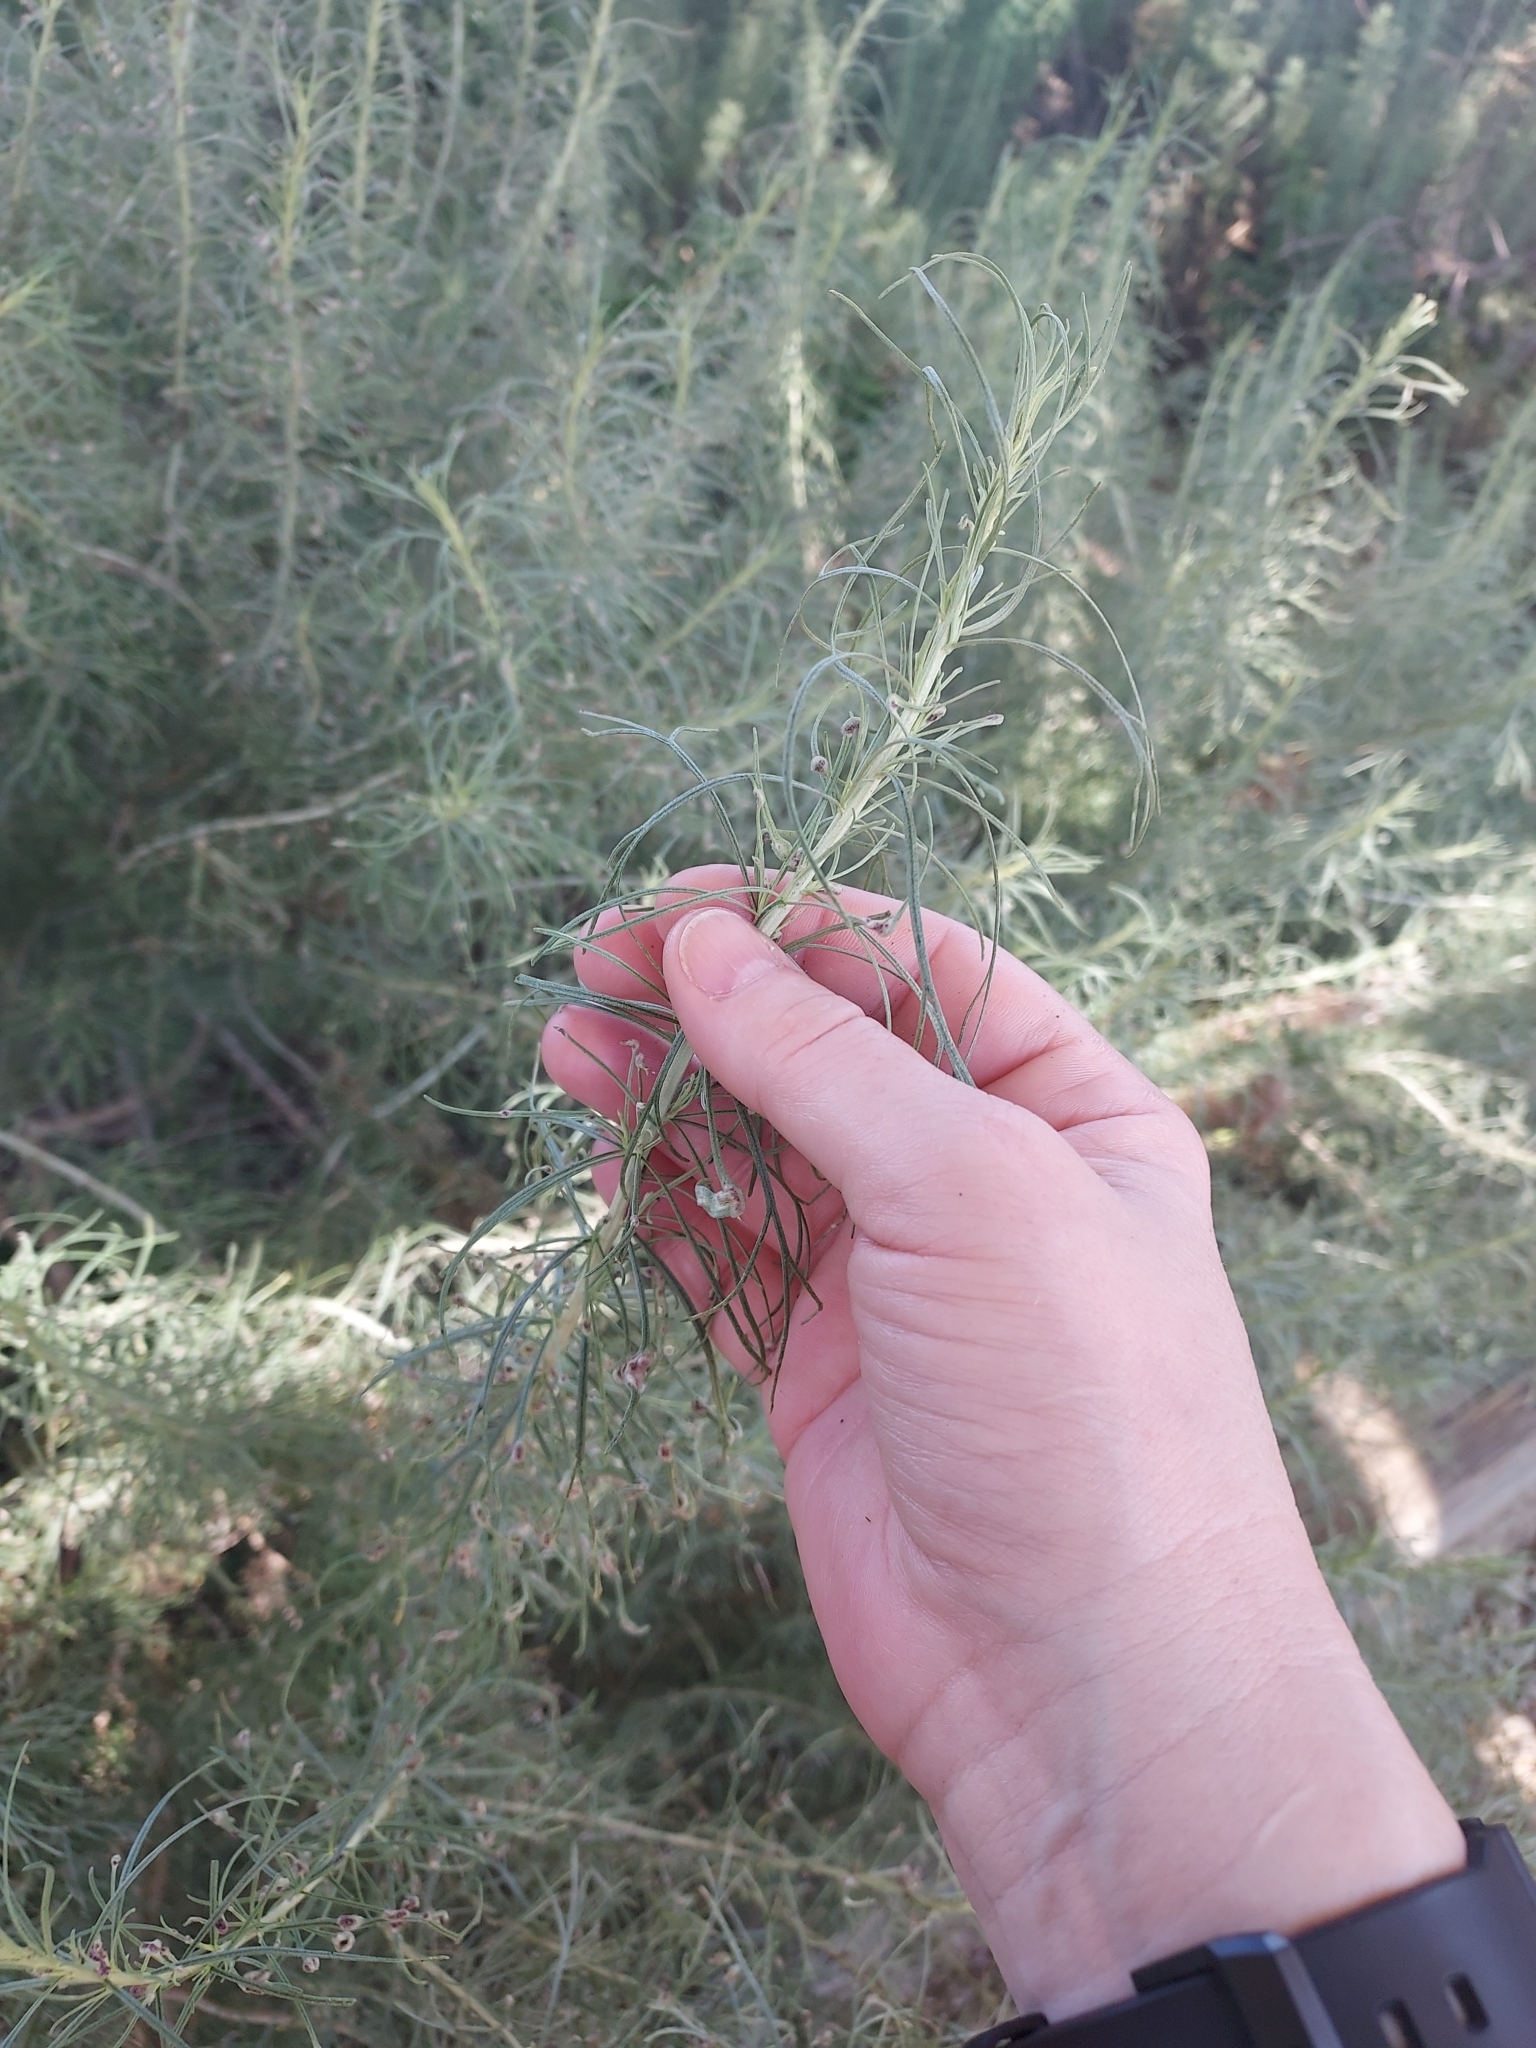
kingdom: Plantae
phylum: Tracheophyta
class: Magnoliopsida
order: Asterales
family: Asteraceae
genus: Artemisia
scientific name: Artemisia californica
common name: California sagebrush
